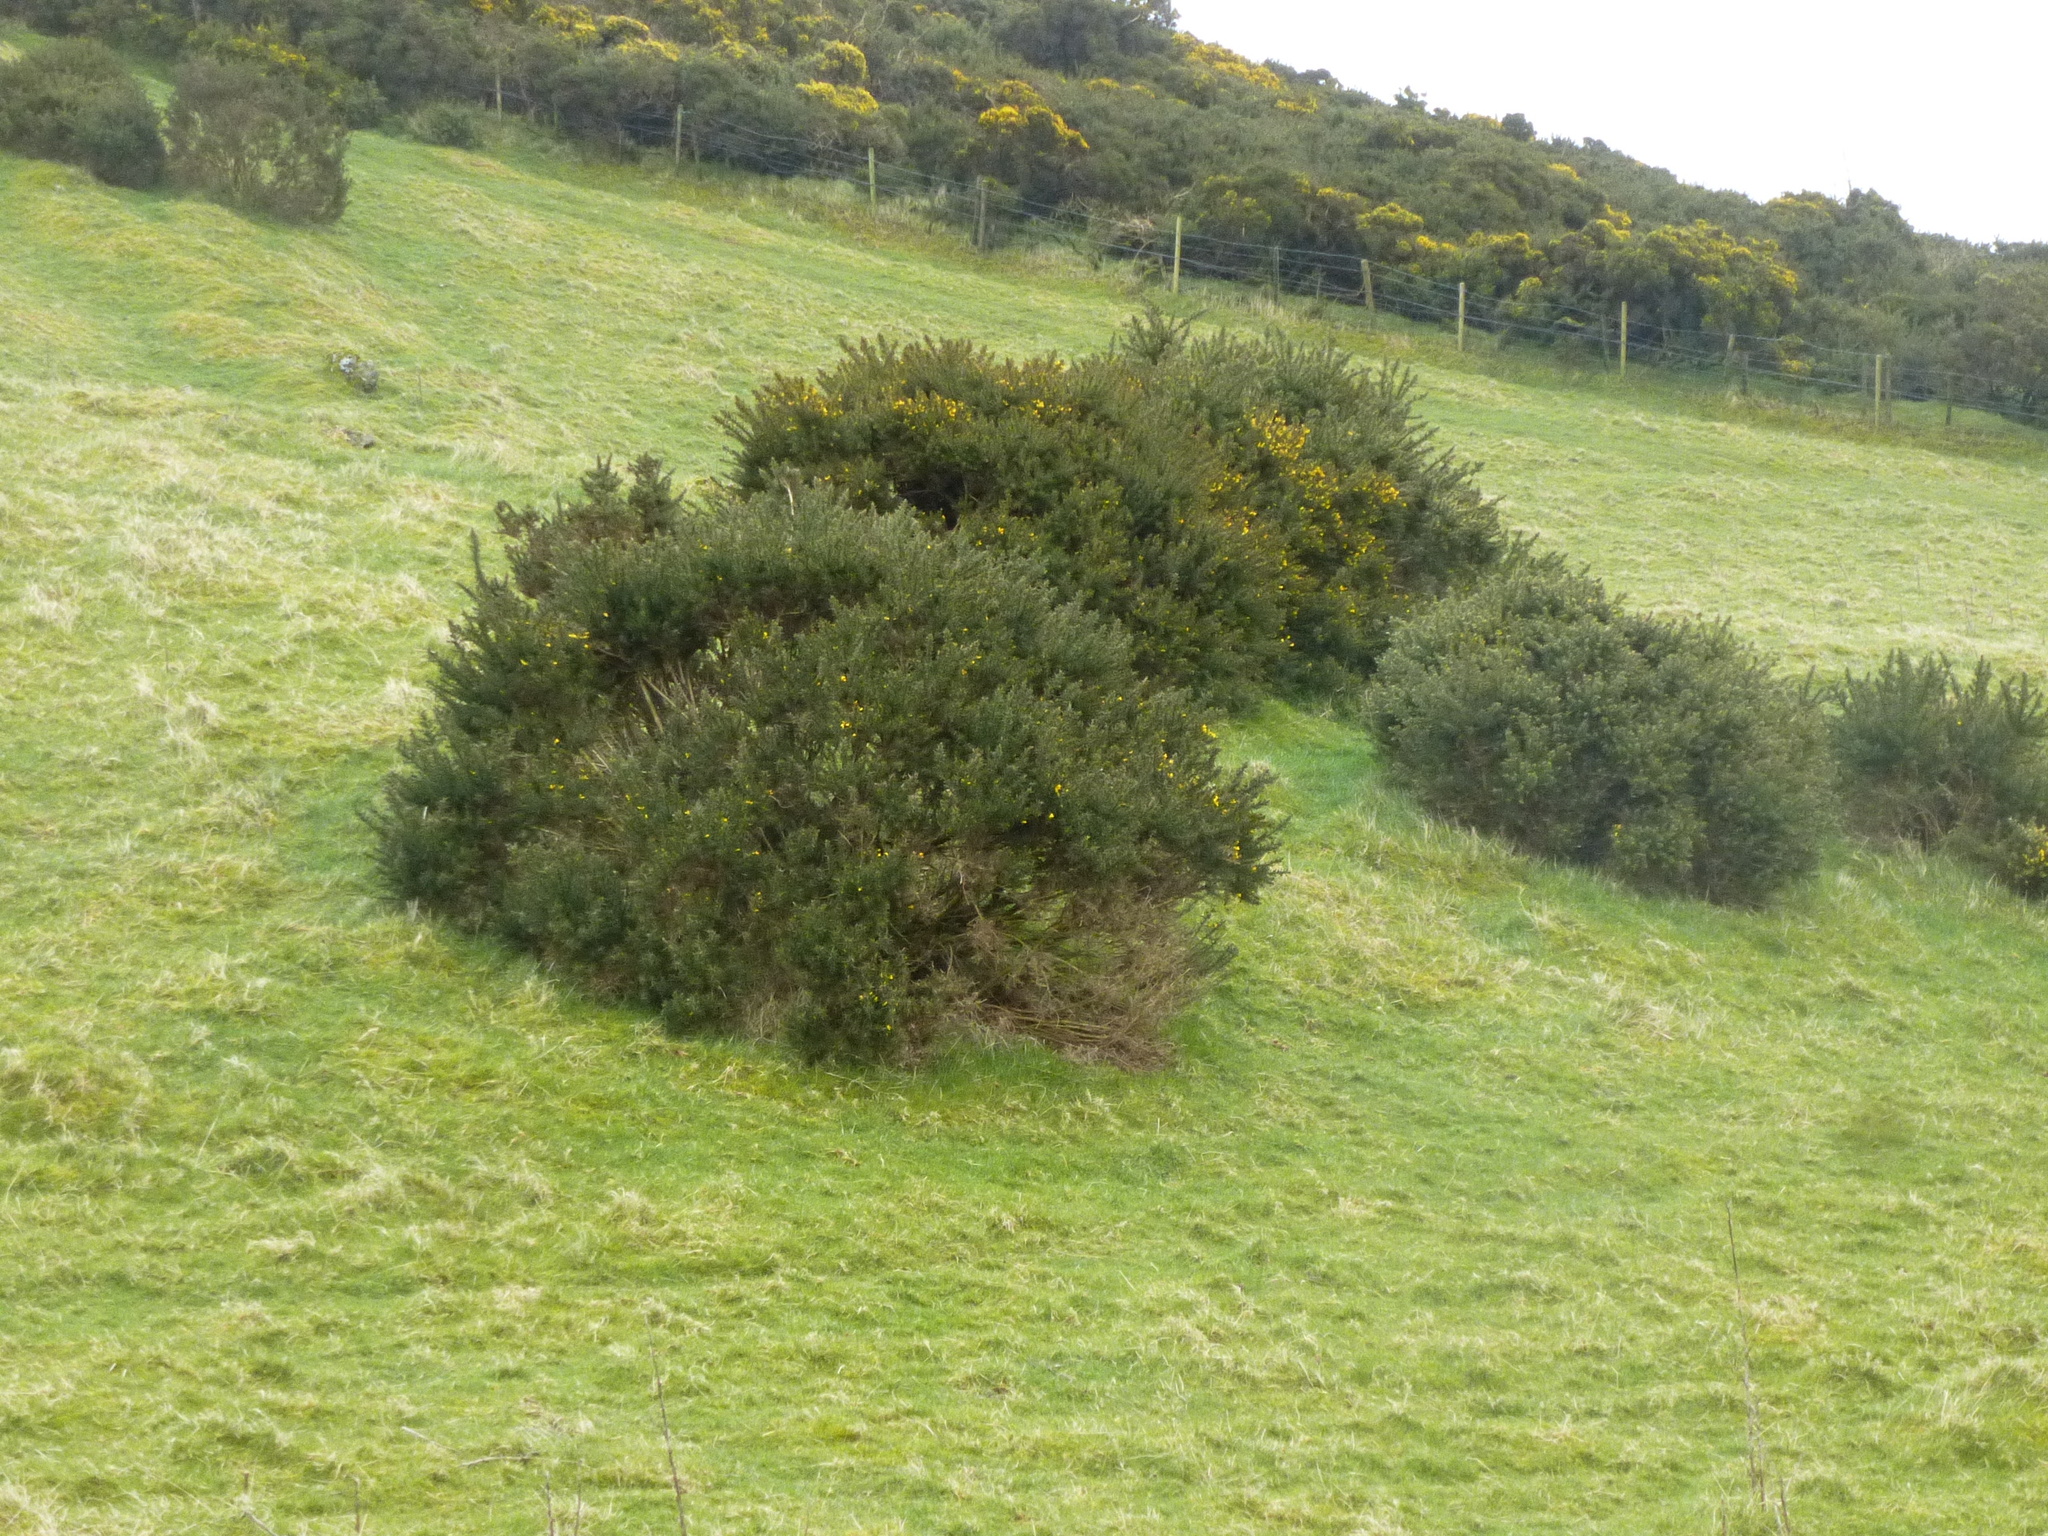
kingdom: Plantae
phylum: Tracheophyta
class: Magnoliopsida
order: Fabales
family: Fabaceae
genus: Ulex
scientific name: Ulex europaeus
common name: Common gorse
